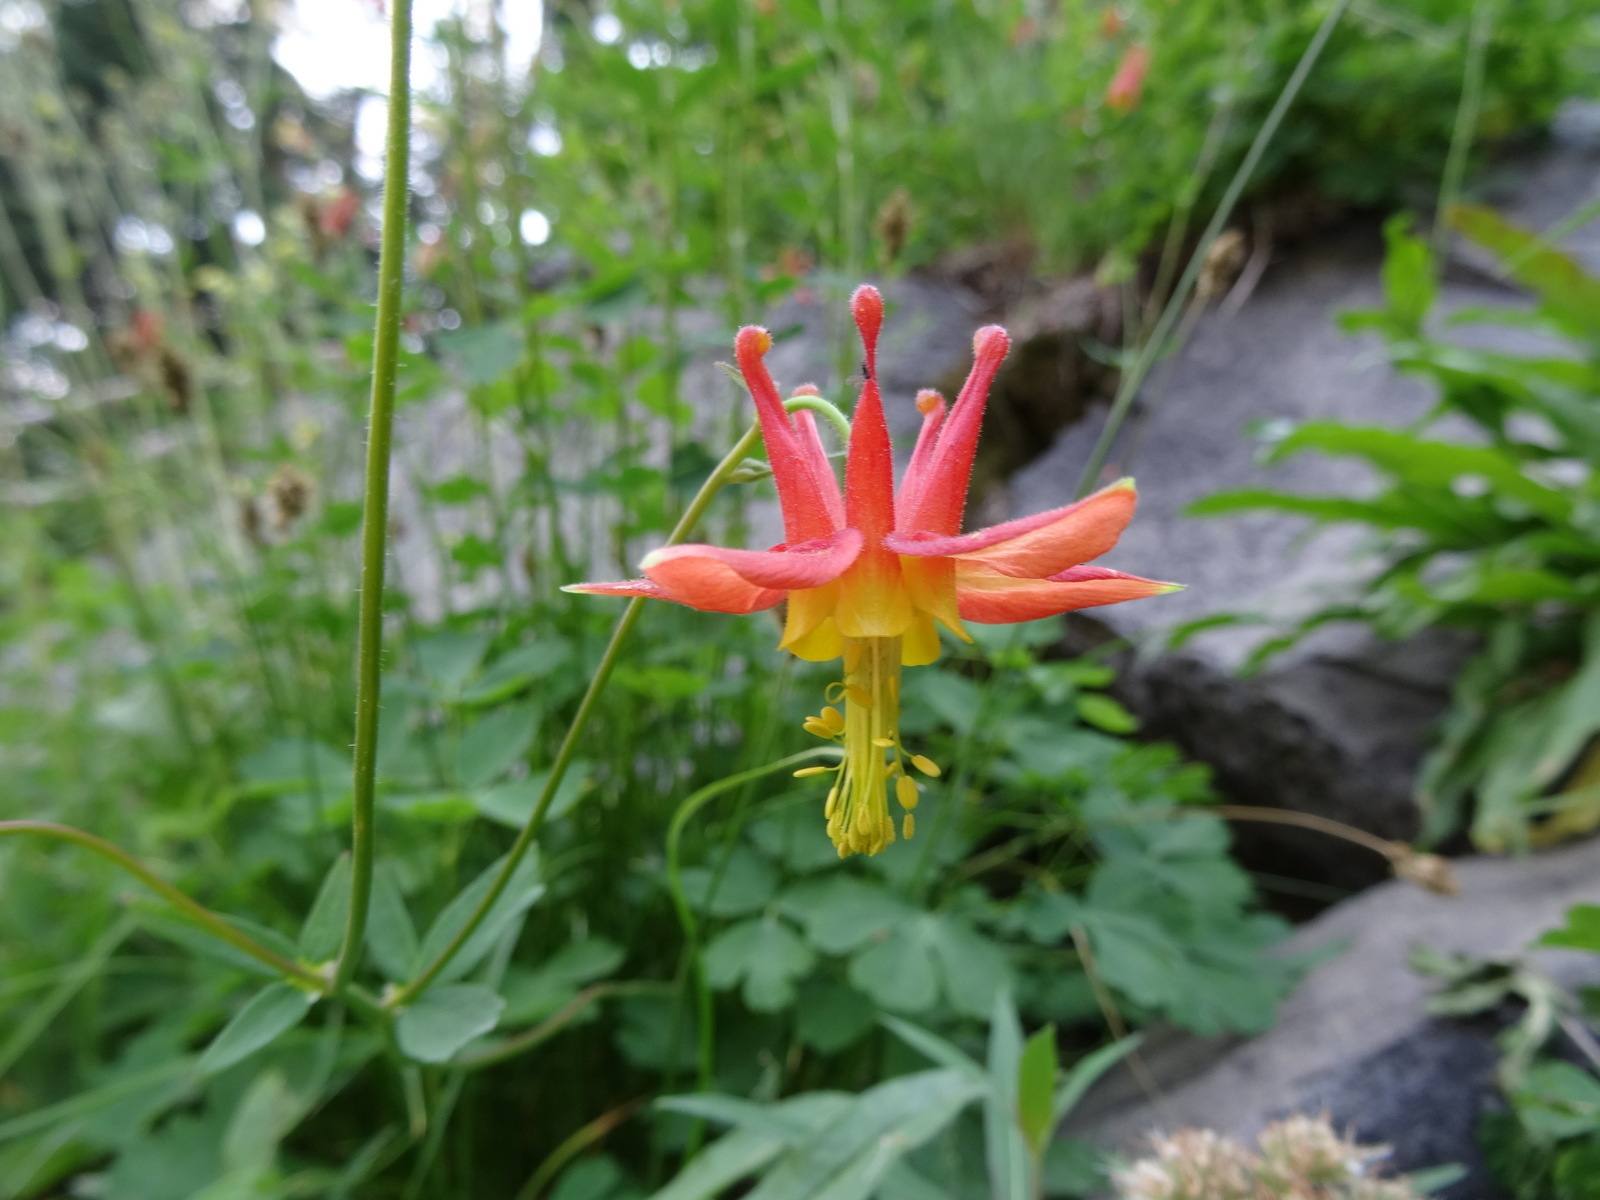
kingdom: Plantae
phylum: Tracheophyta
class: Magnoliopsida
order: Ranunculales
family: Ranunculaceae
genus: Aquilegia
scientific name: Aquilegia formosa
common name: Sitka columbine
